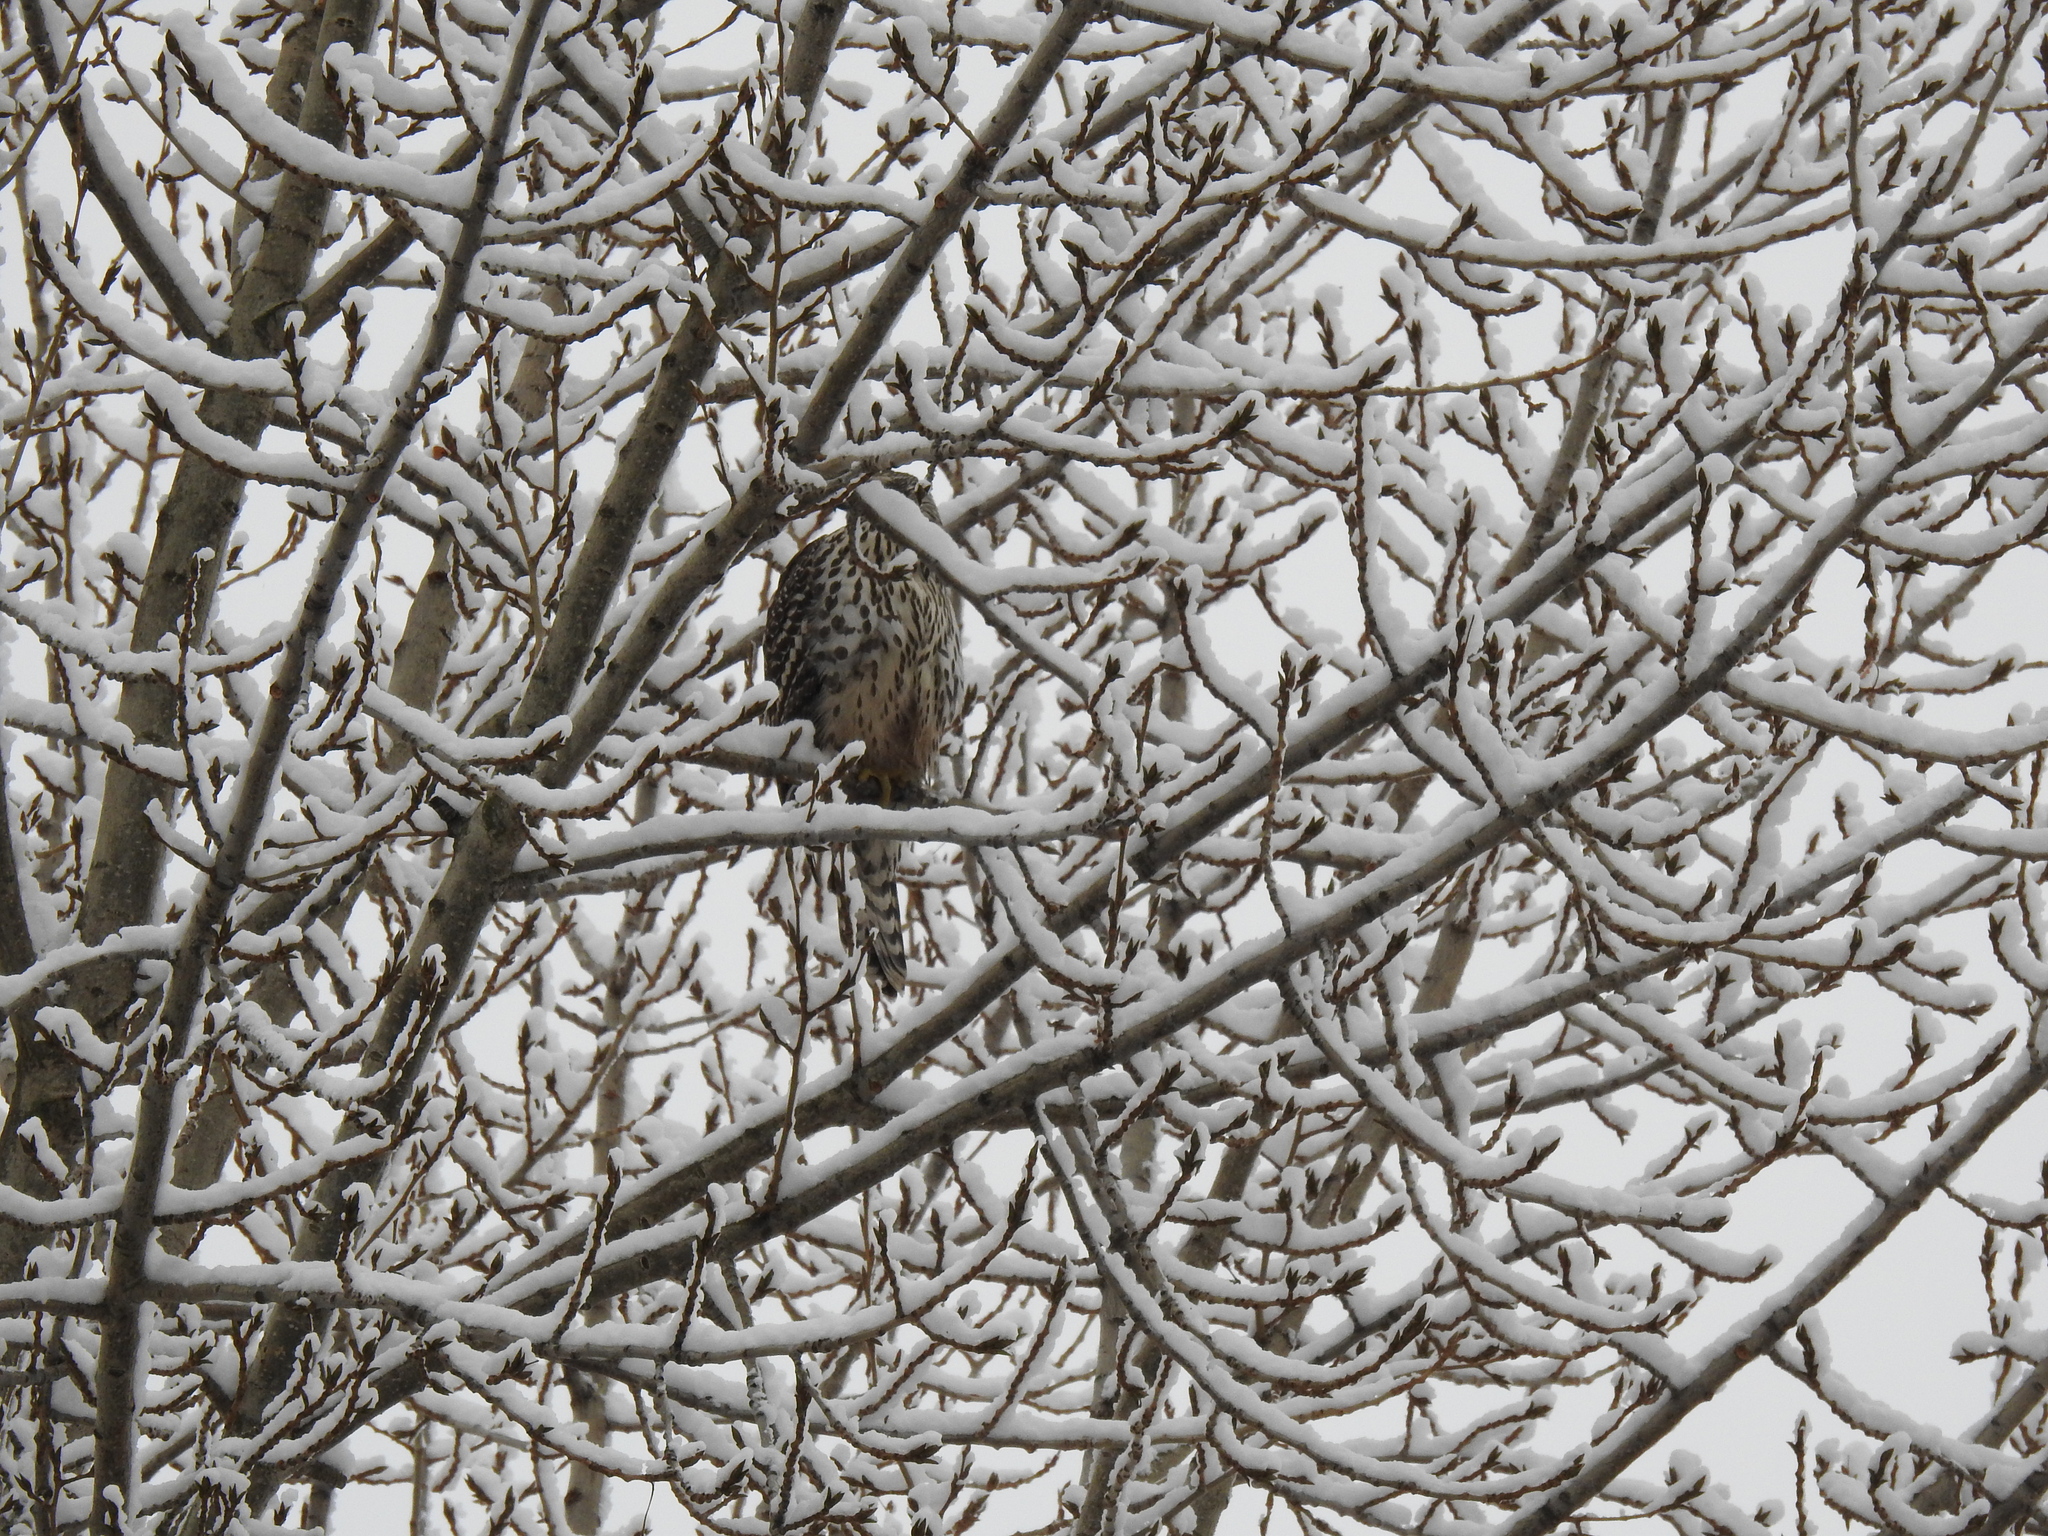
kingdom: Animalia
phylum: Chordata
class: Aves
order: Accipitriformes
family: Accipitridae
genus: Accipiter
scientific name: Accipiter gentilis
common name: Northern goshawk
